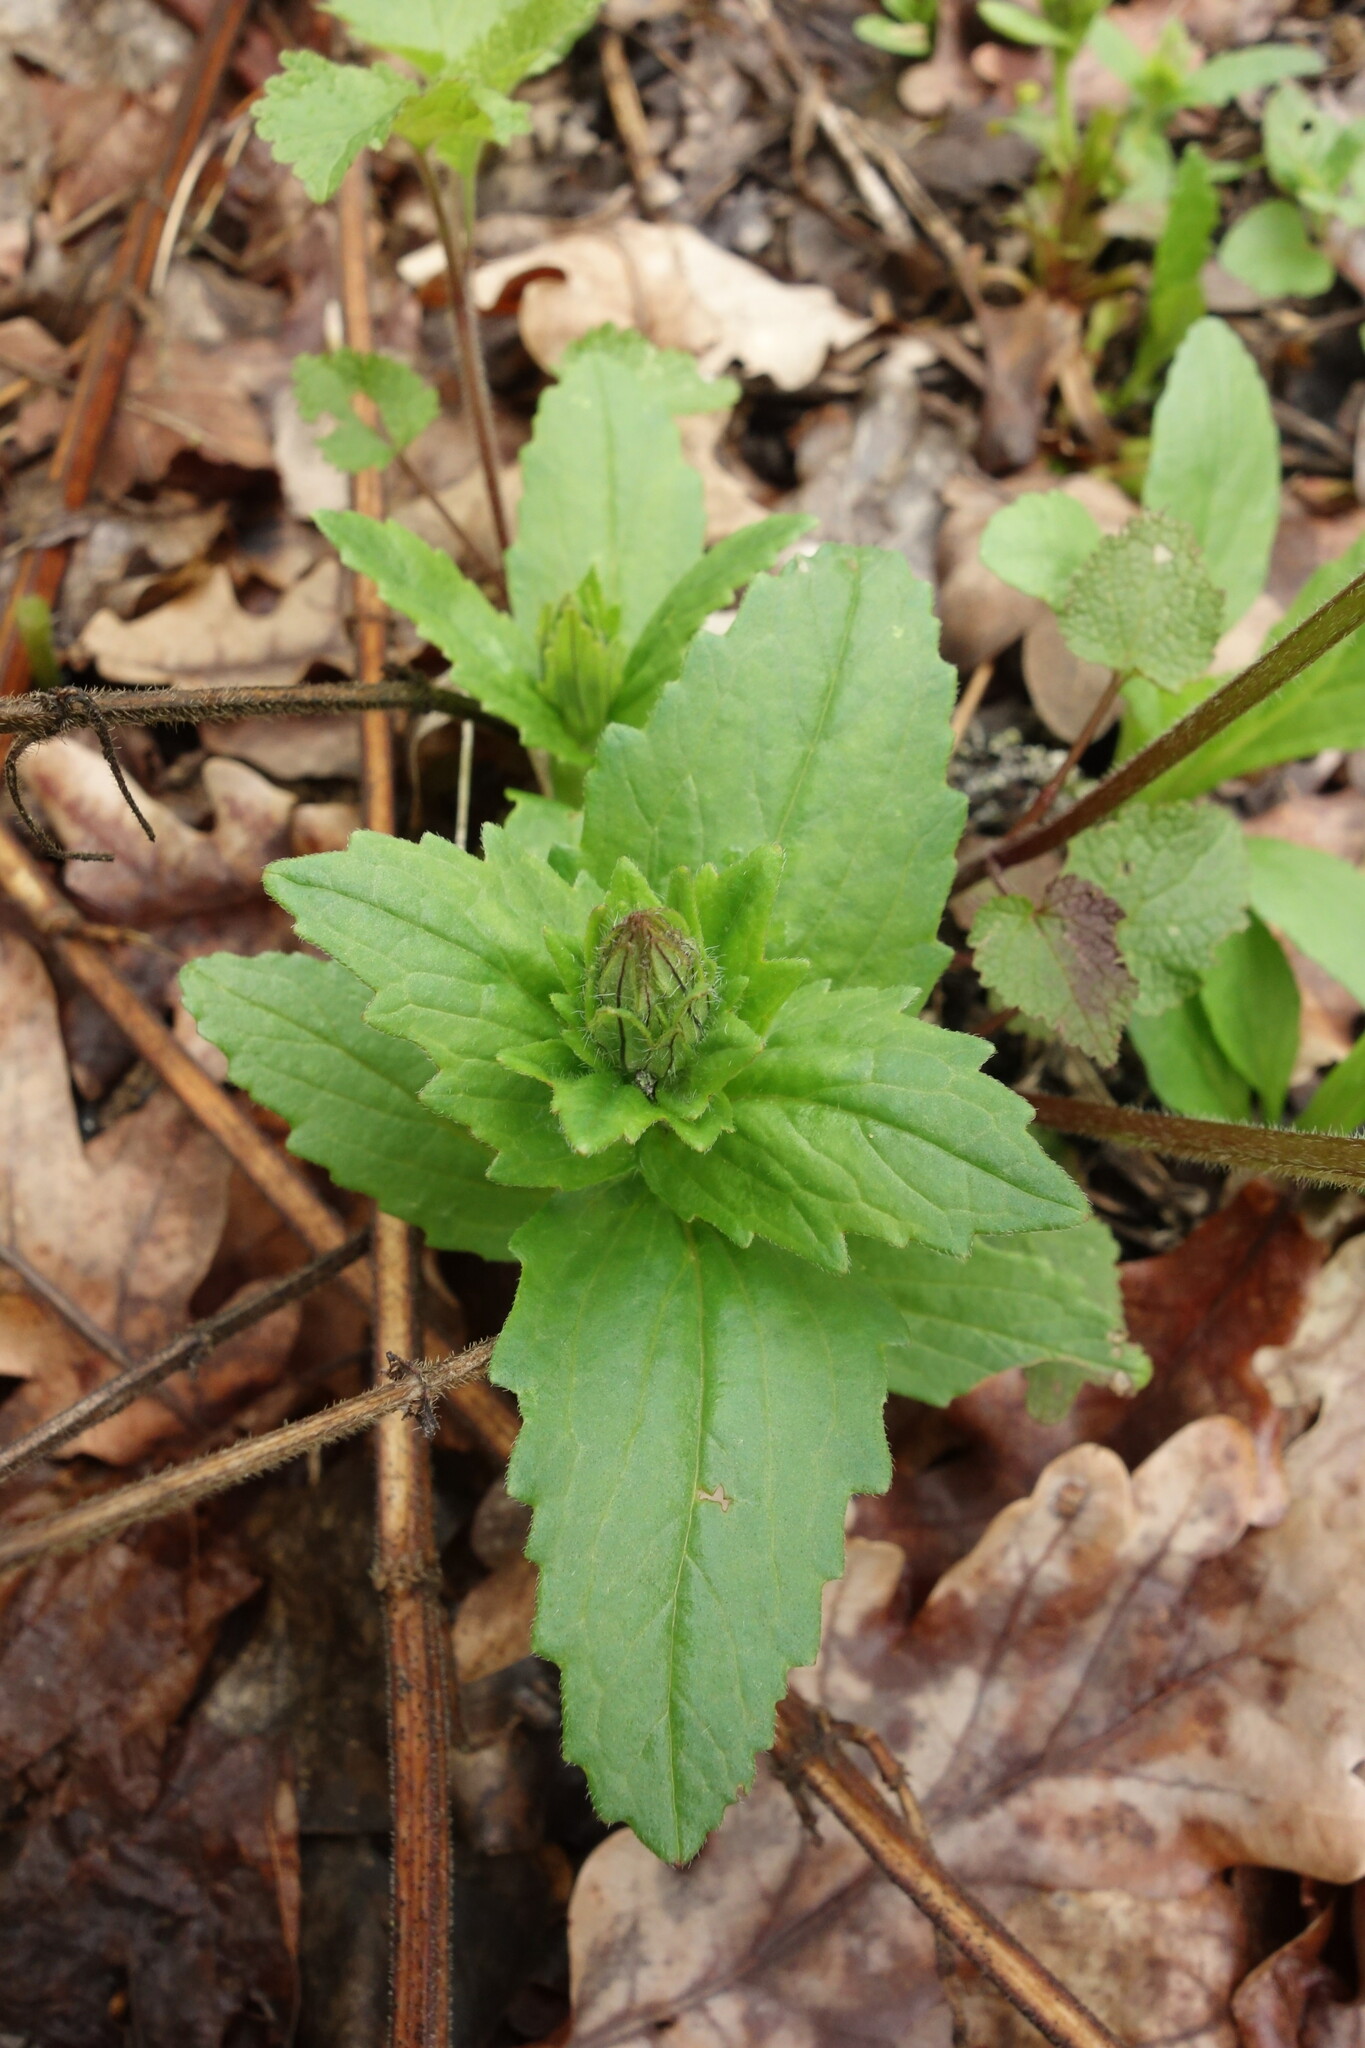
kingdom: Plantae
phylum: Tracheophyta
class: Magnoliopsida
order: Lamiales
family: Lamiaceae
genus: Ajuga
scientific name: Ajuga genevensis
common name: Blue bugle
